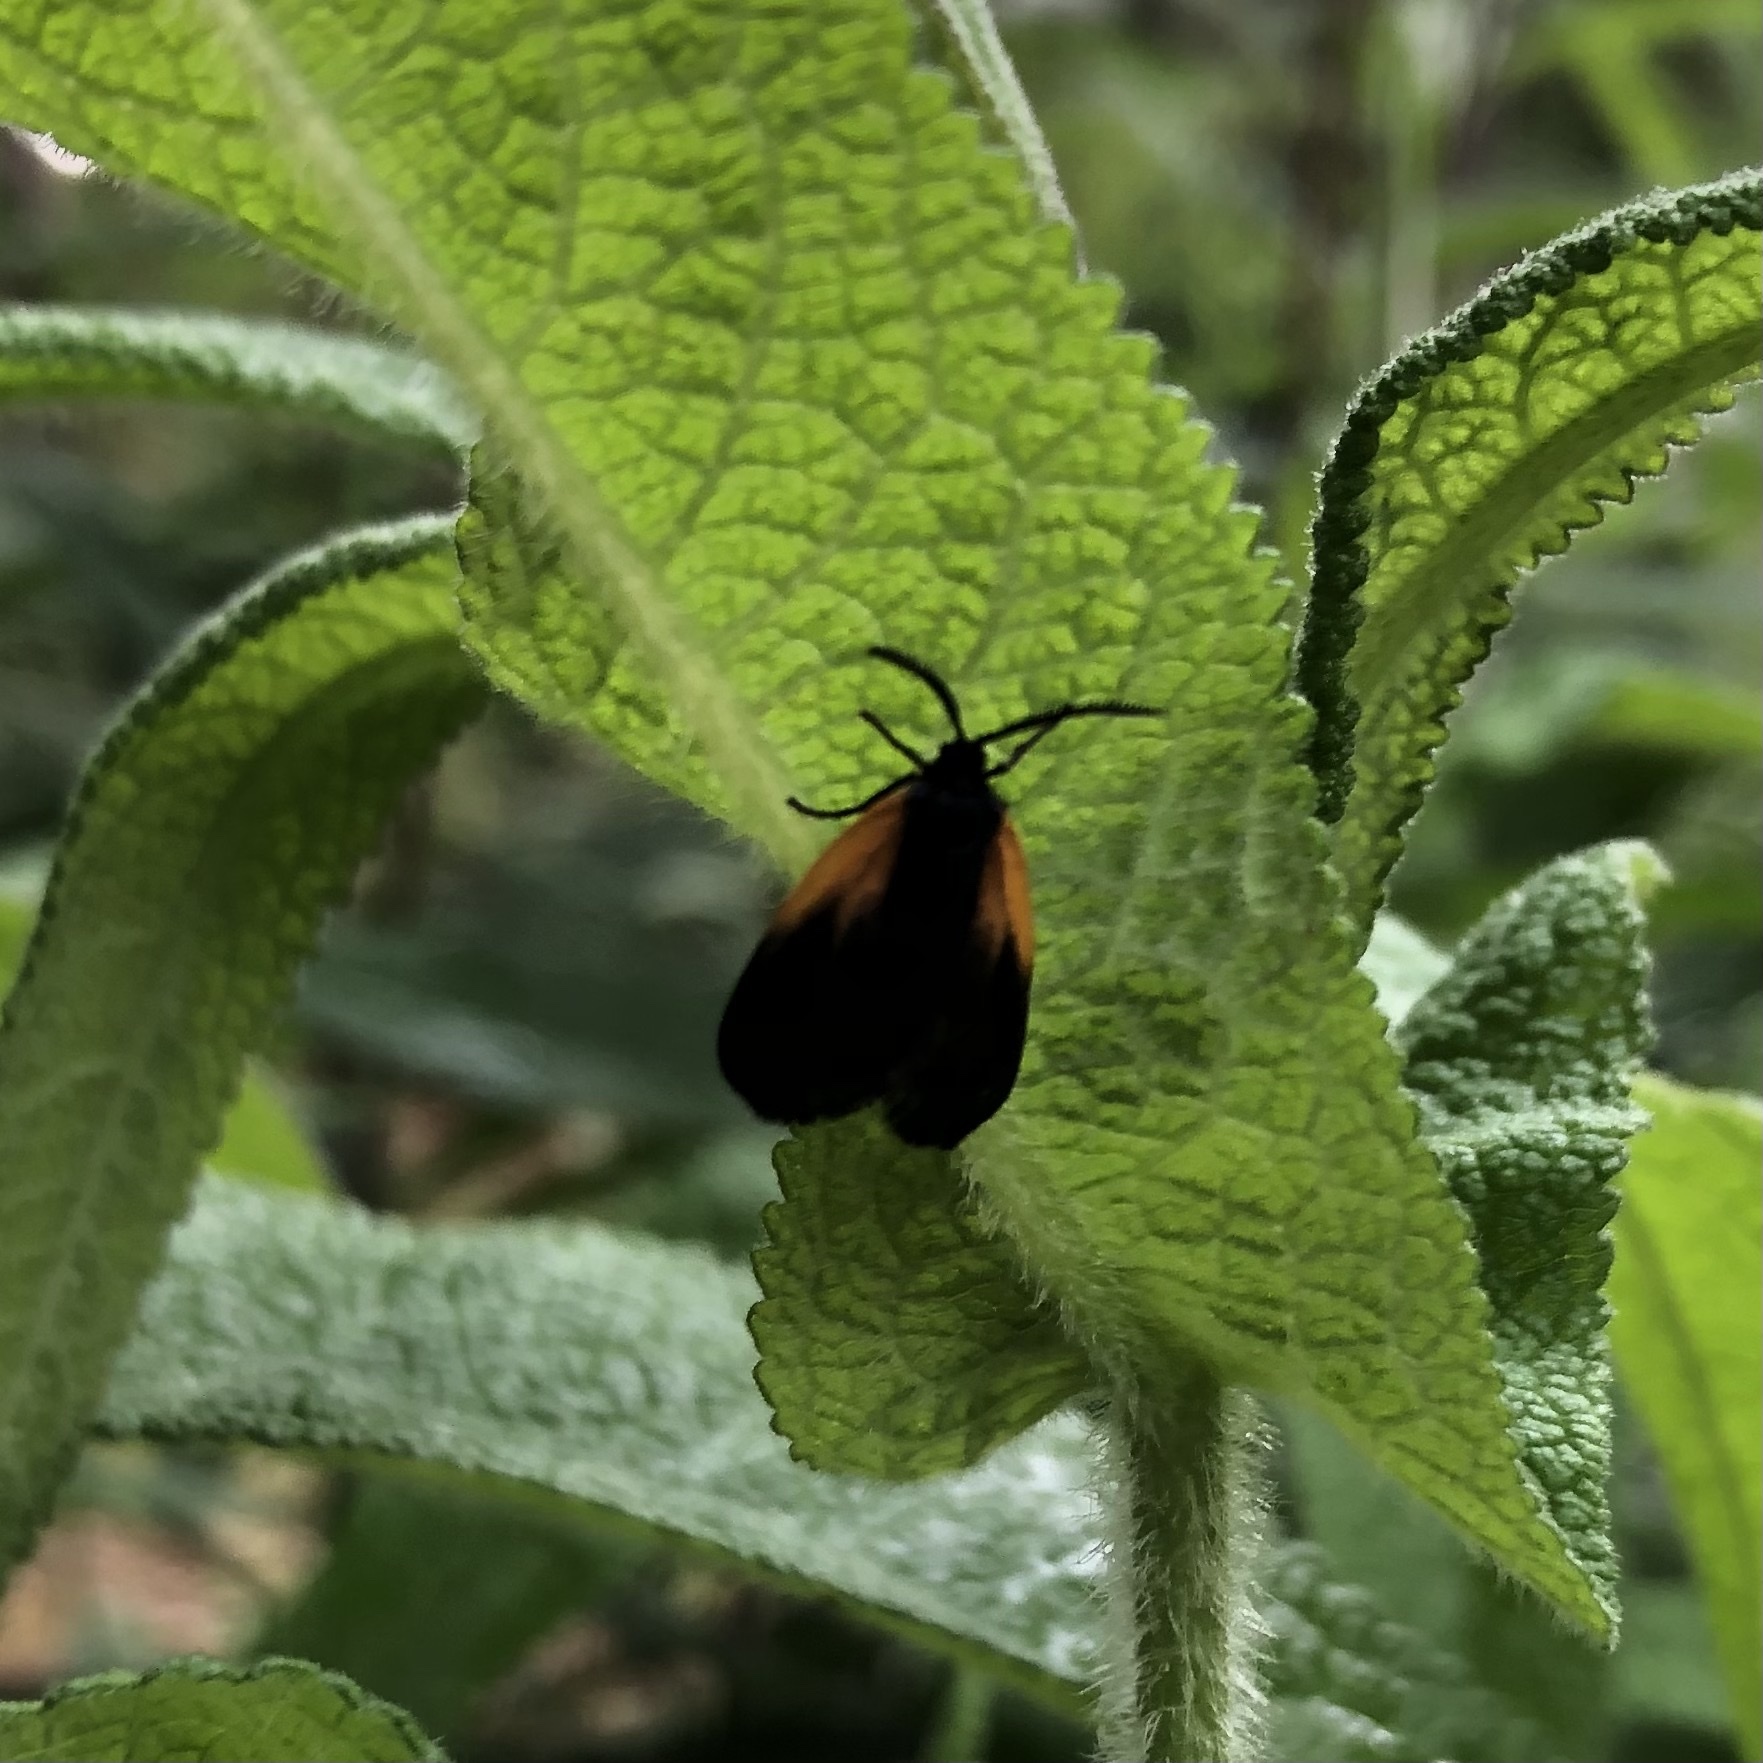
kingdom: Animalia
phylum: Arthropoda
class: Insecta
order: Lepidoptera
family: Zygaenidae
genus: Malthaca
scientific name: Malthaca dimidiata
